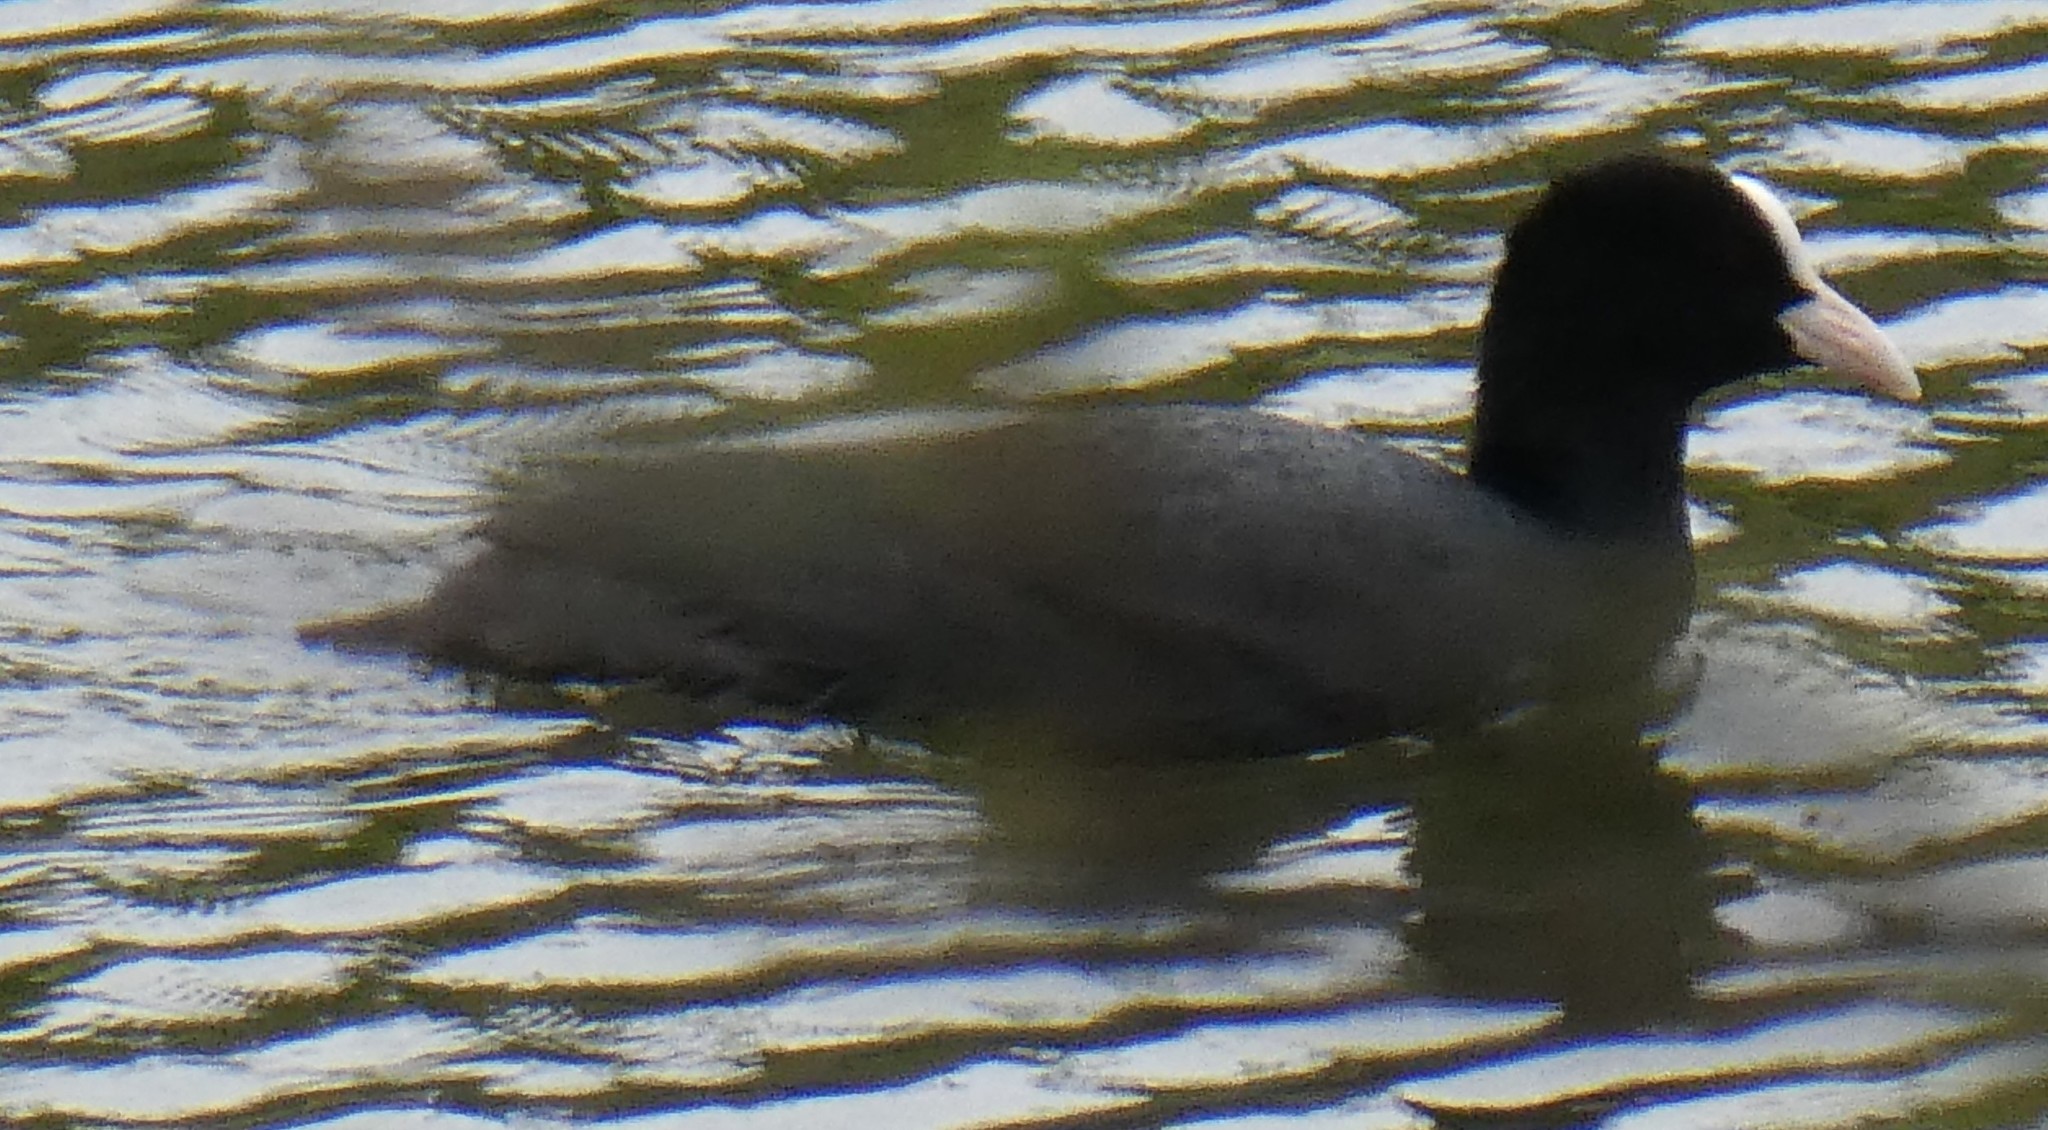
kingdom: Animalia
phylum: Chordata
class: Aves
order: Gruiformes
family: Rallidae
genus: Fulica
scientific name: Fulica atra
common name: Eurasian coot
